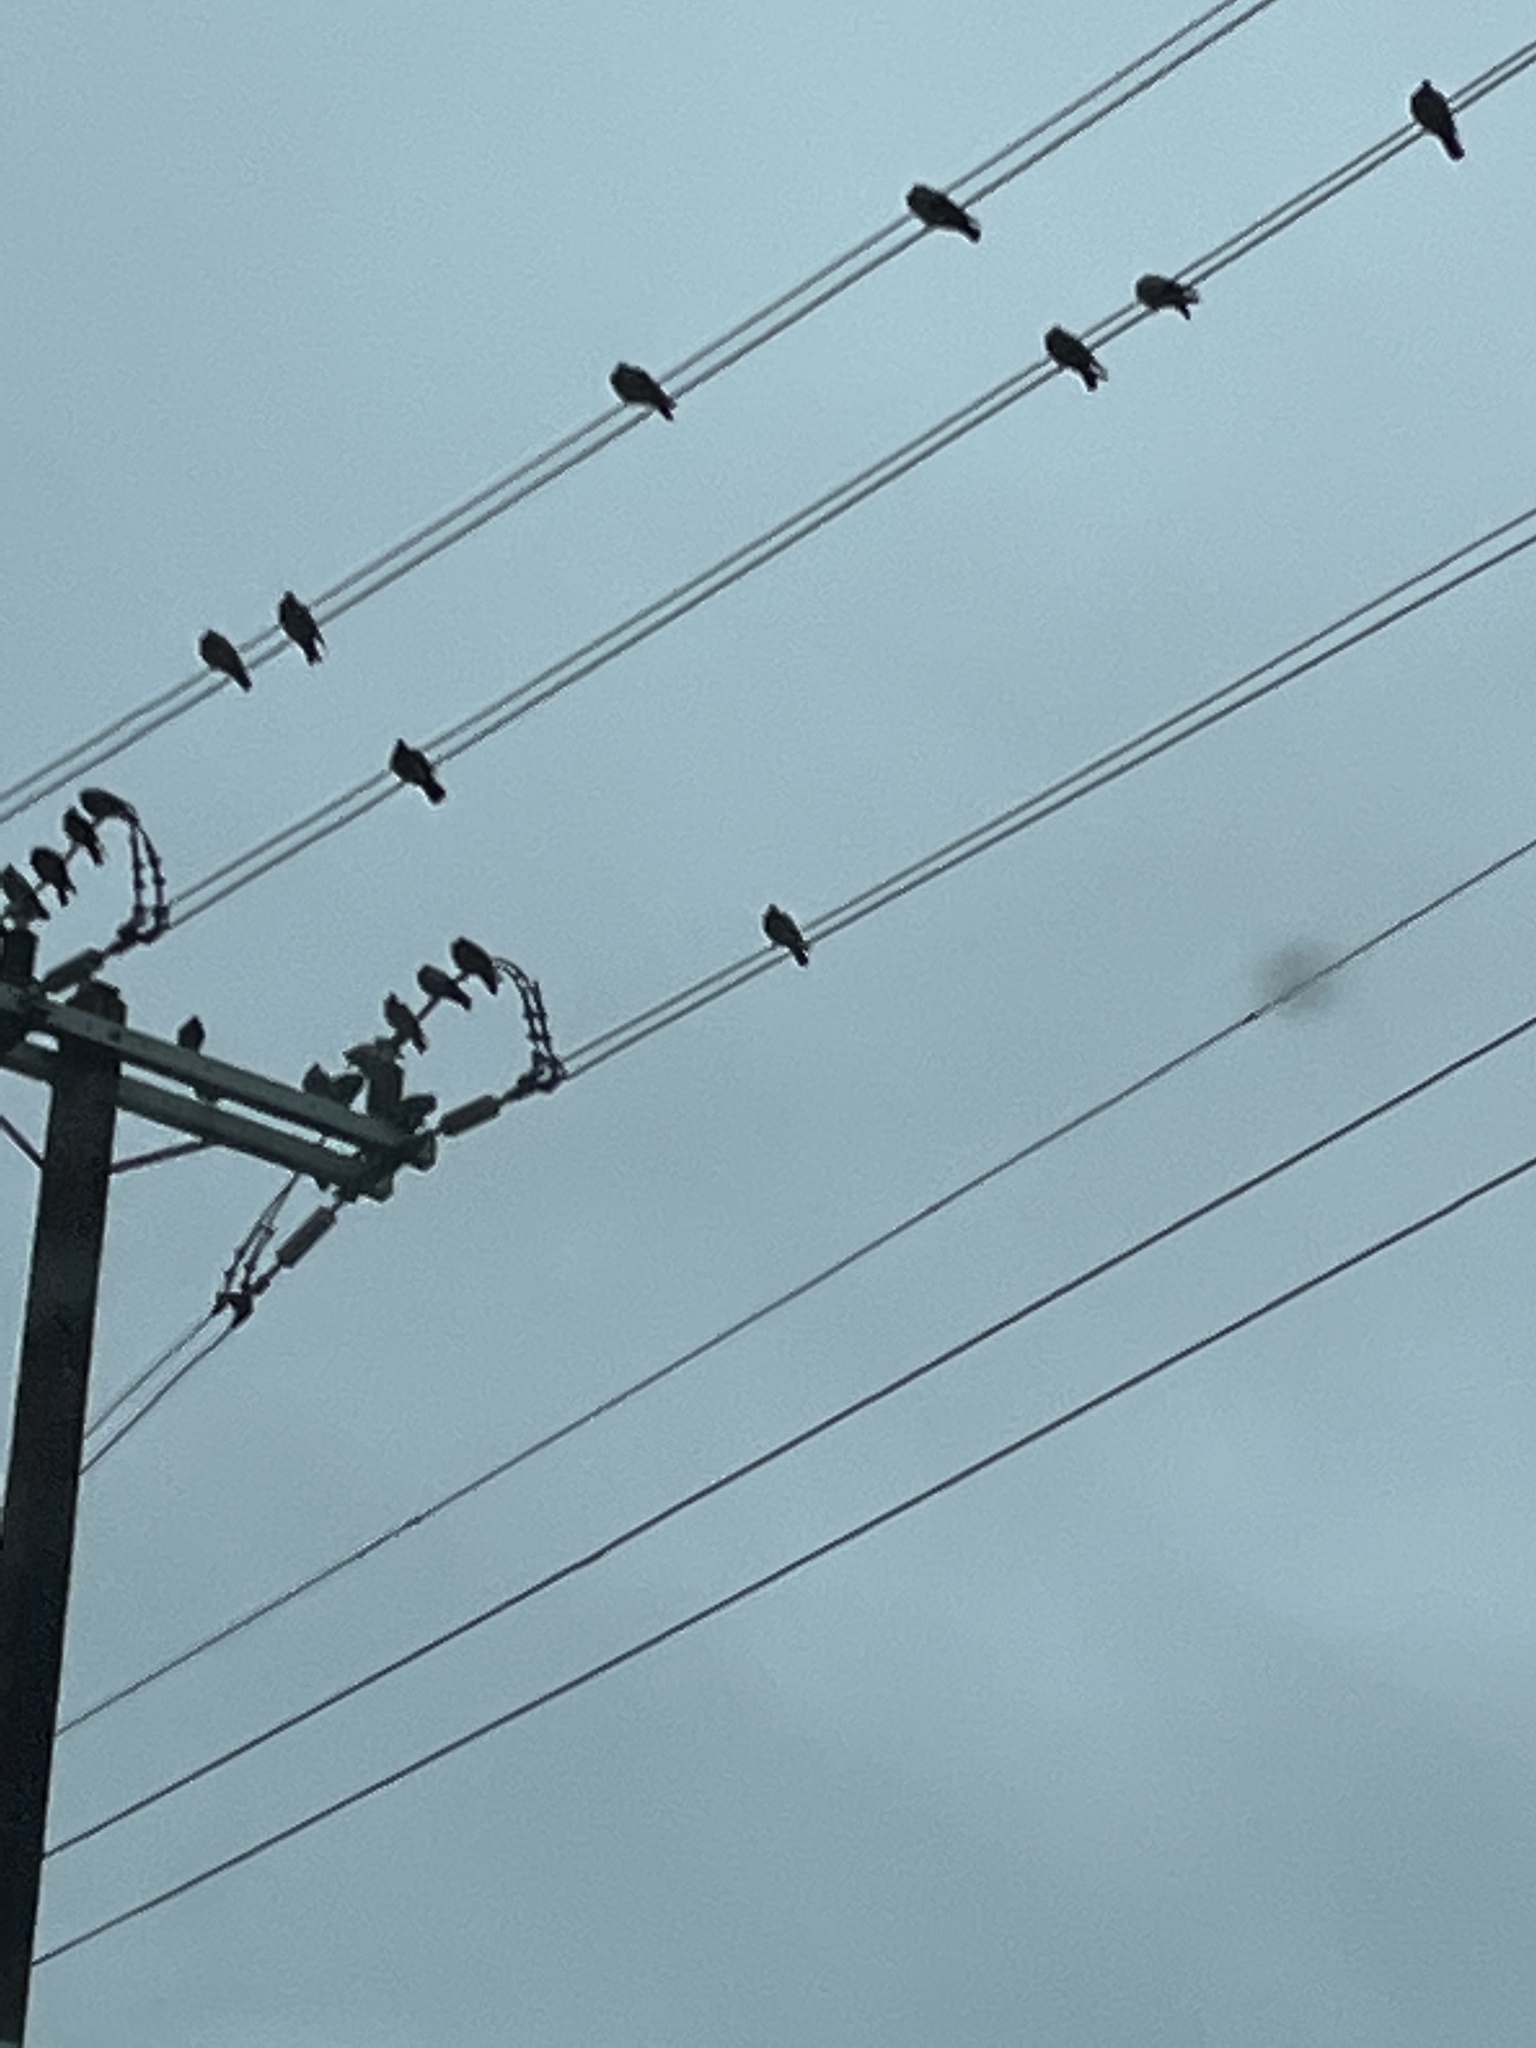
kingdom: Animalia
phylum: Chordata
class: Aves
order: Columbiformes
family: Columbidae
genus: Columba
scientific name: Columba livia
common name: Rock pigeon
